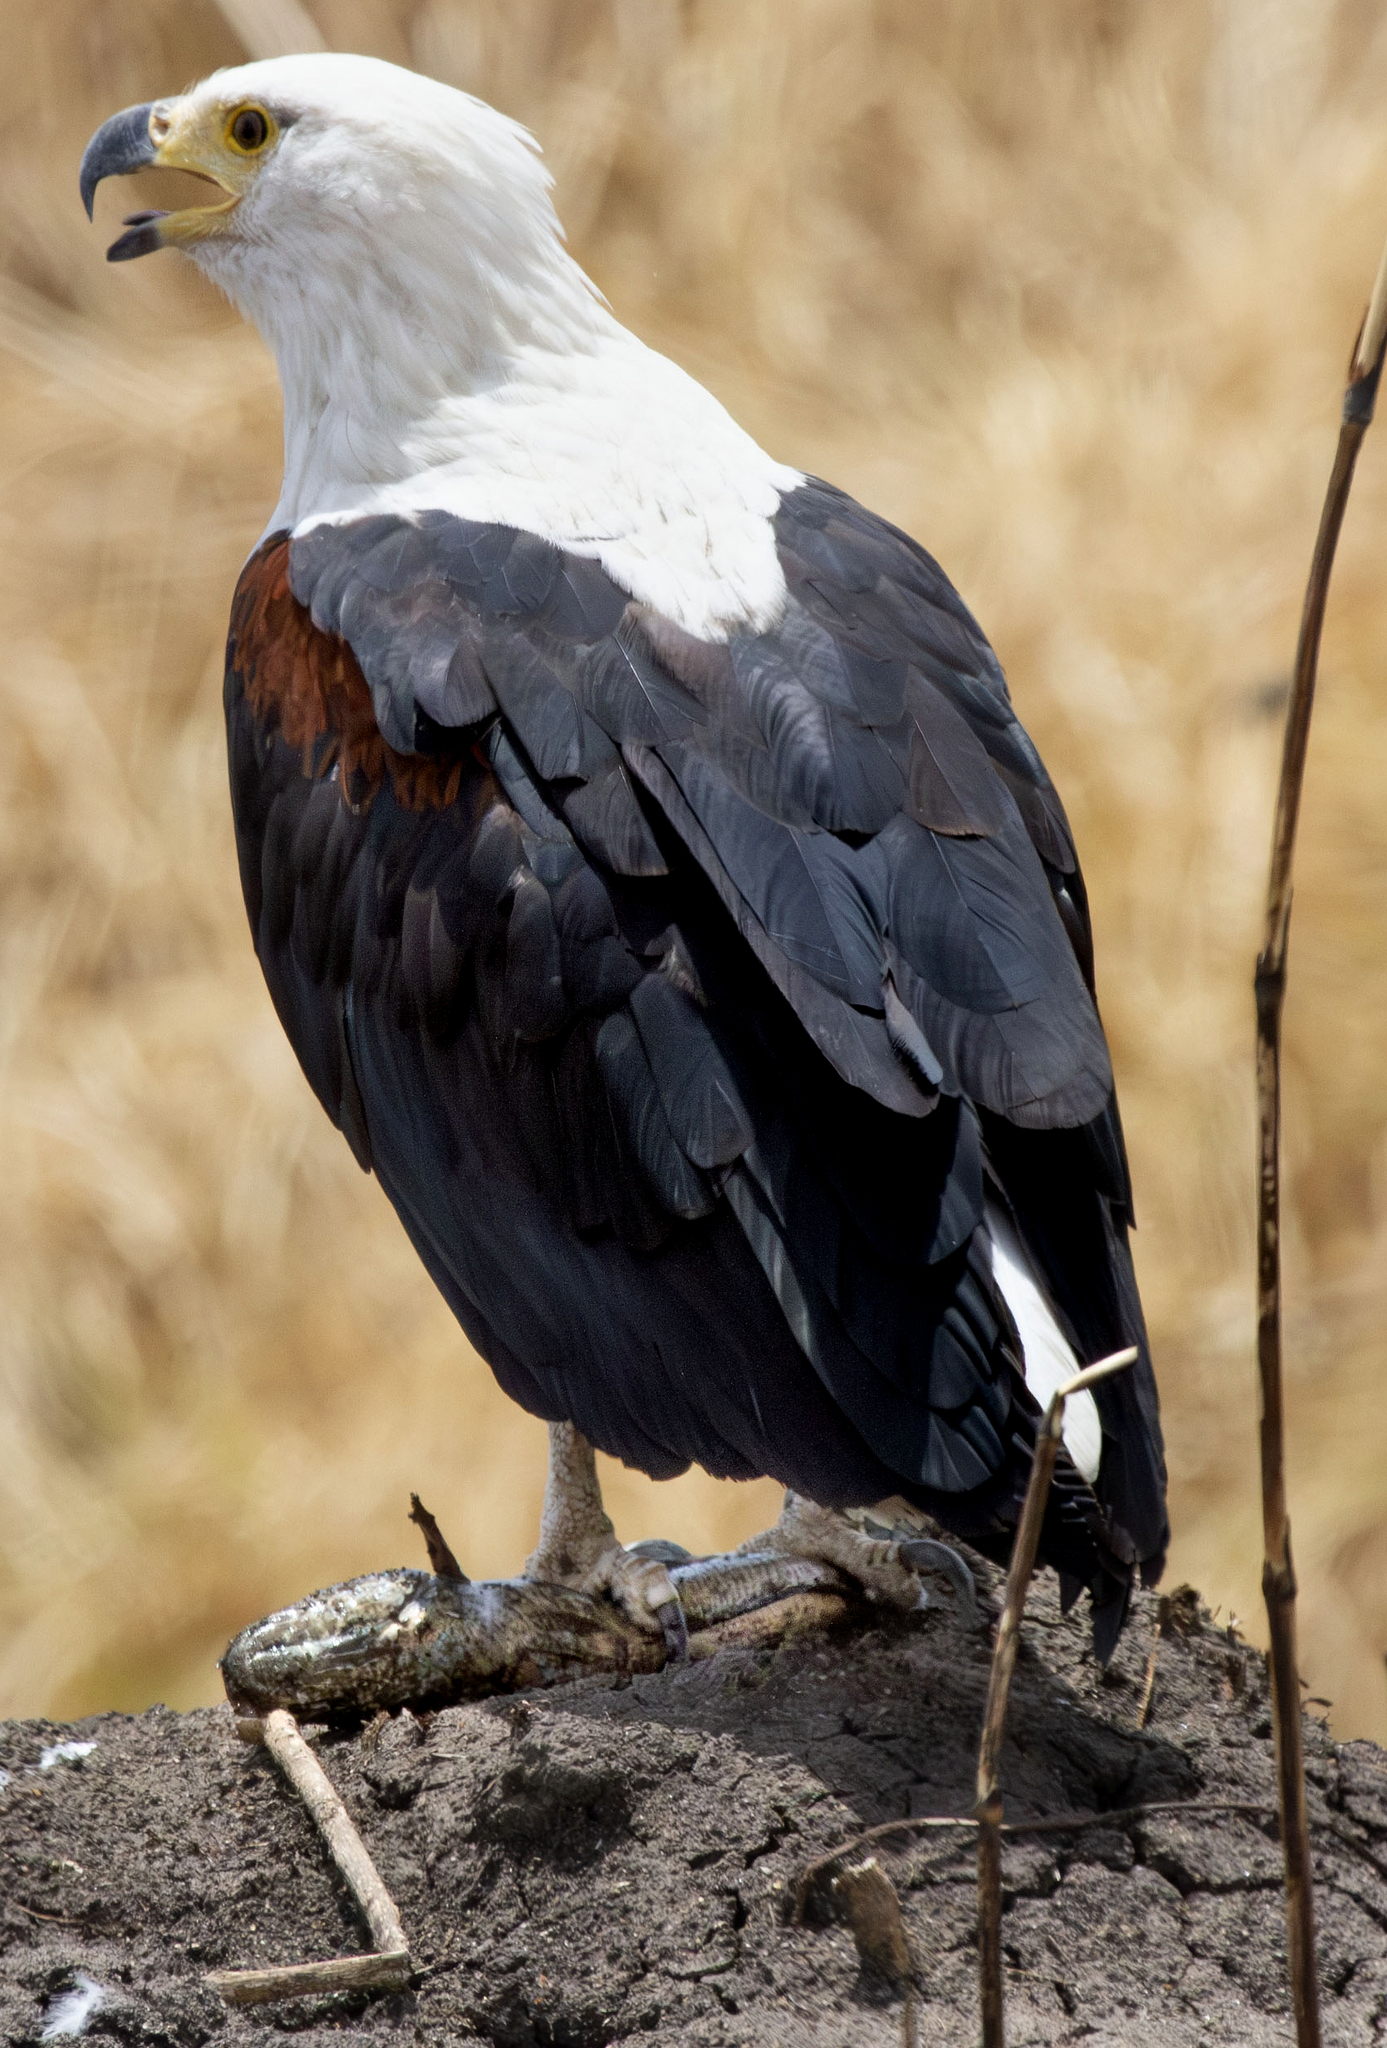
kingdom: Animalia
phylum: Chordata
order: Perciformes
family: Channidae
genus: Parachanna
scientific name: Parachanna obscura
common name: Snake-head
